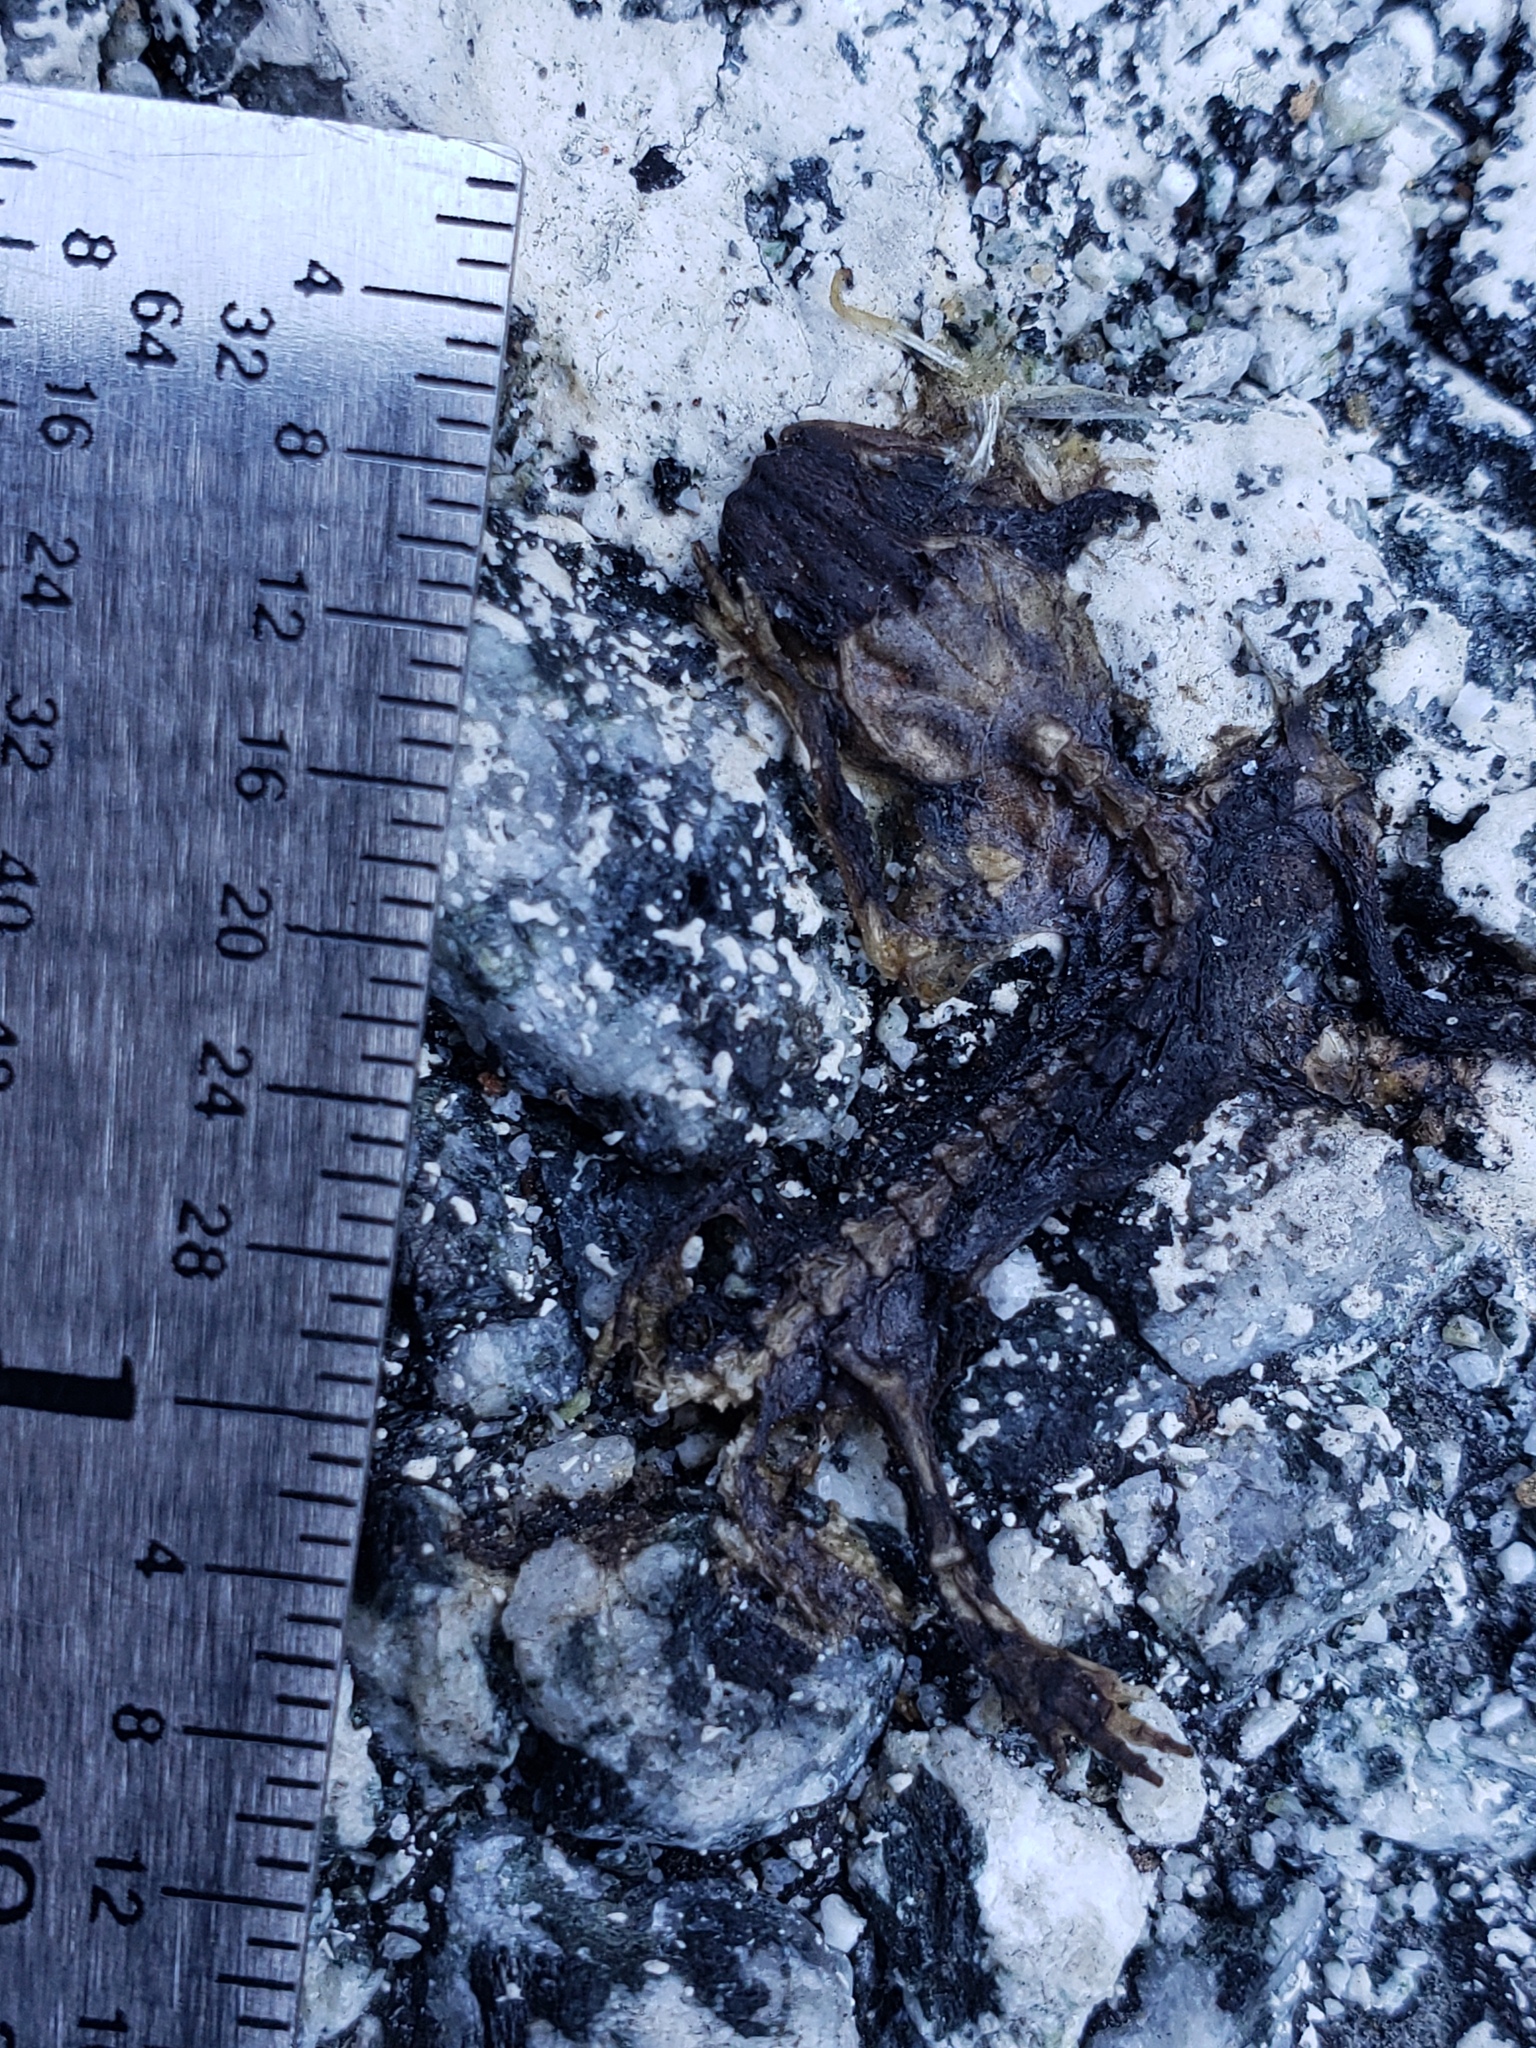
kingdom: Animalia
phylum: Chordata
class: Amphibia
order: Caudata
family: Salamandridae
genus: Taricha
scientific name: Taricha
